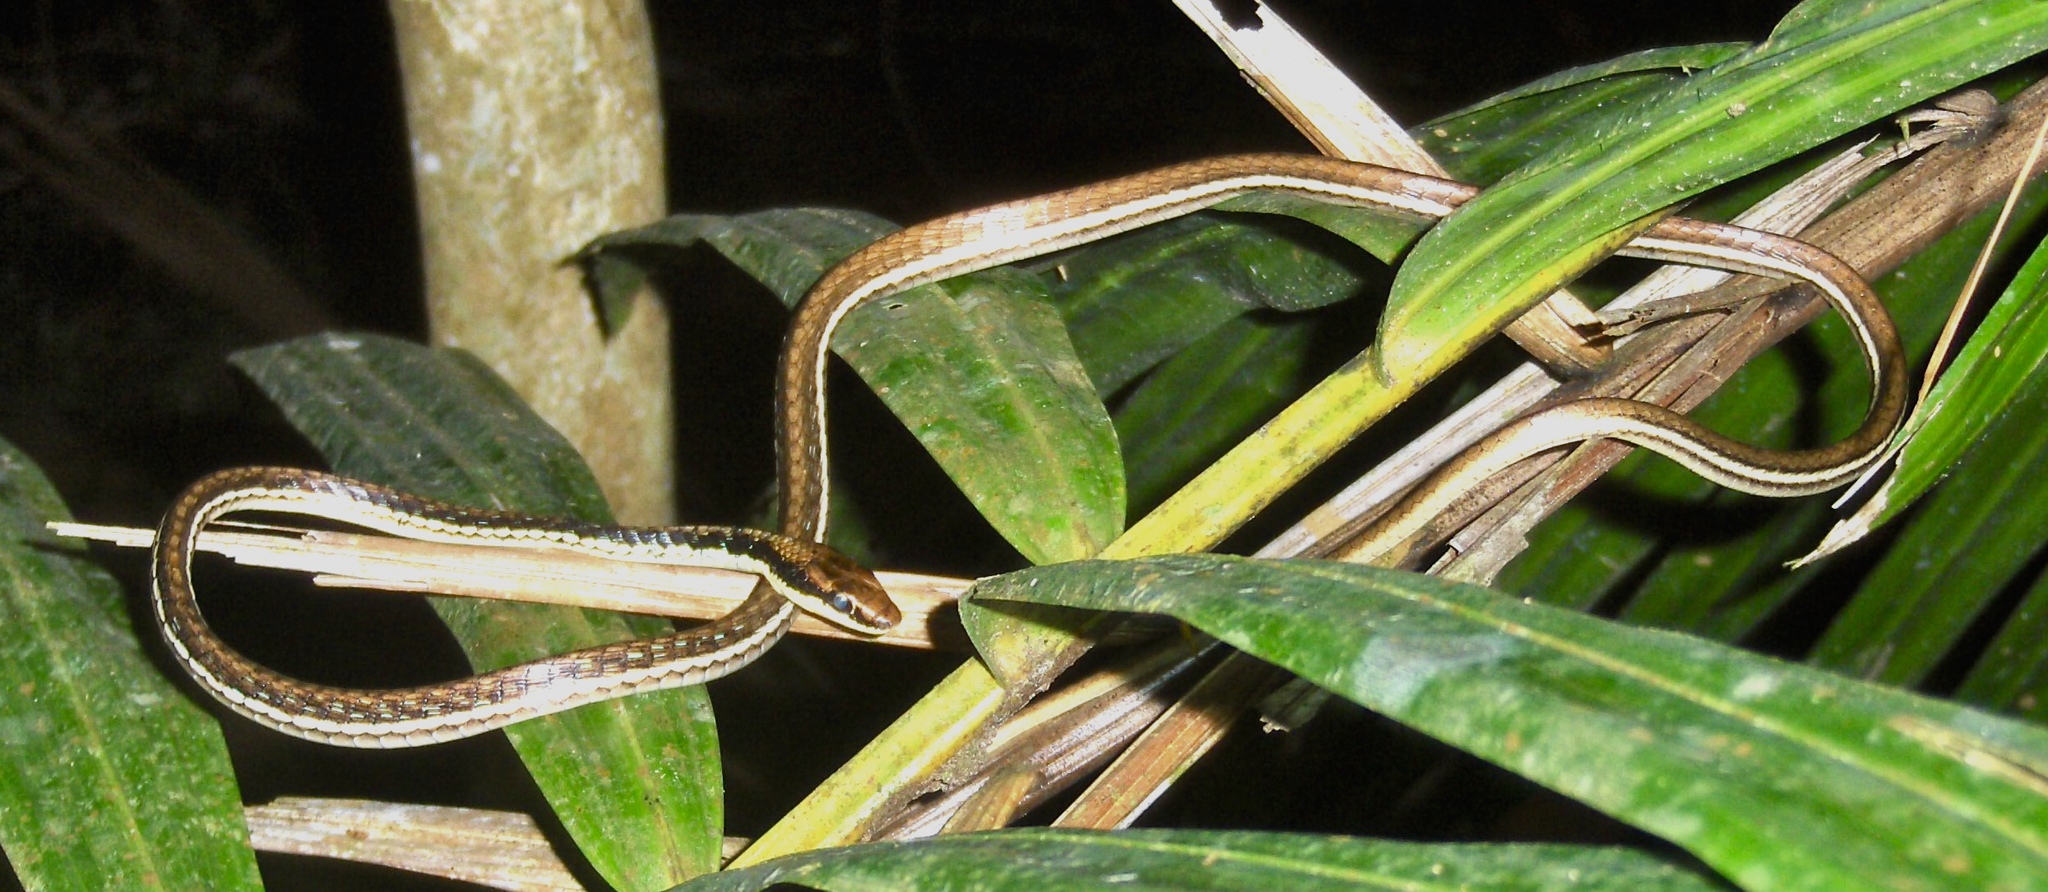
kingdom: Animalia
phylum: Chordata
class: Squamata
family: Colubridae
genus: Dendrelaphis
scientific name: Dendrelaphis pictus
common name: Indonesian bronze-back
